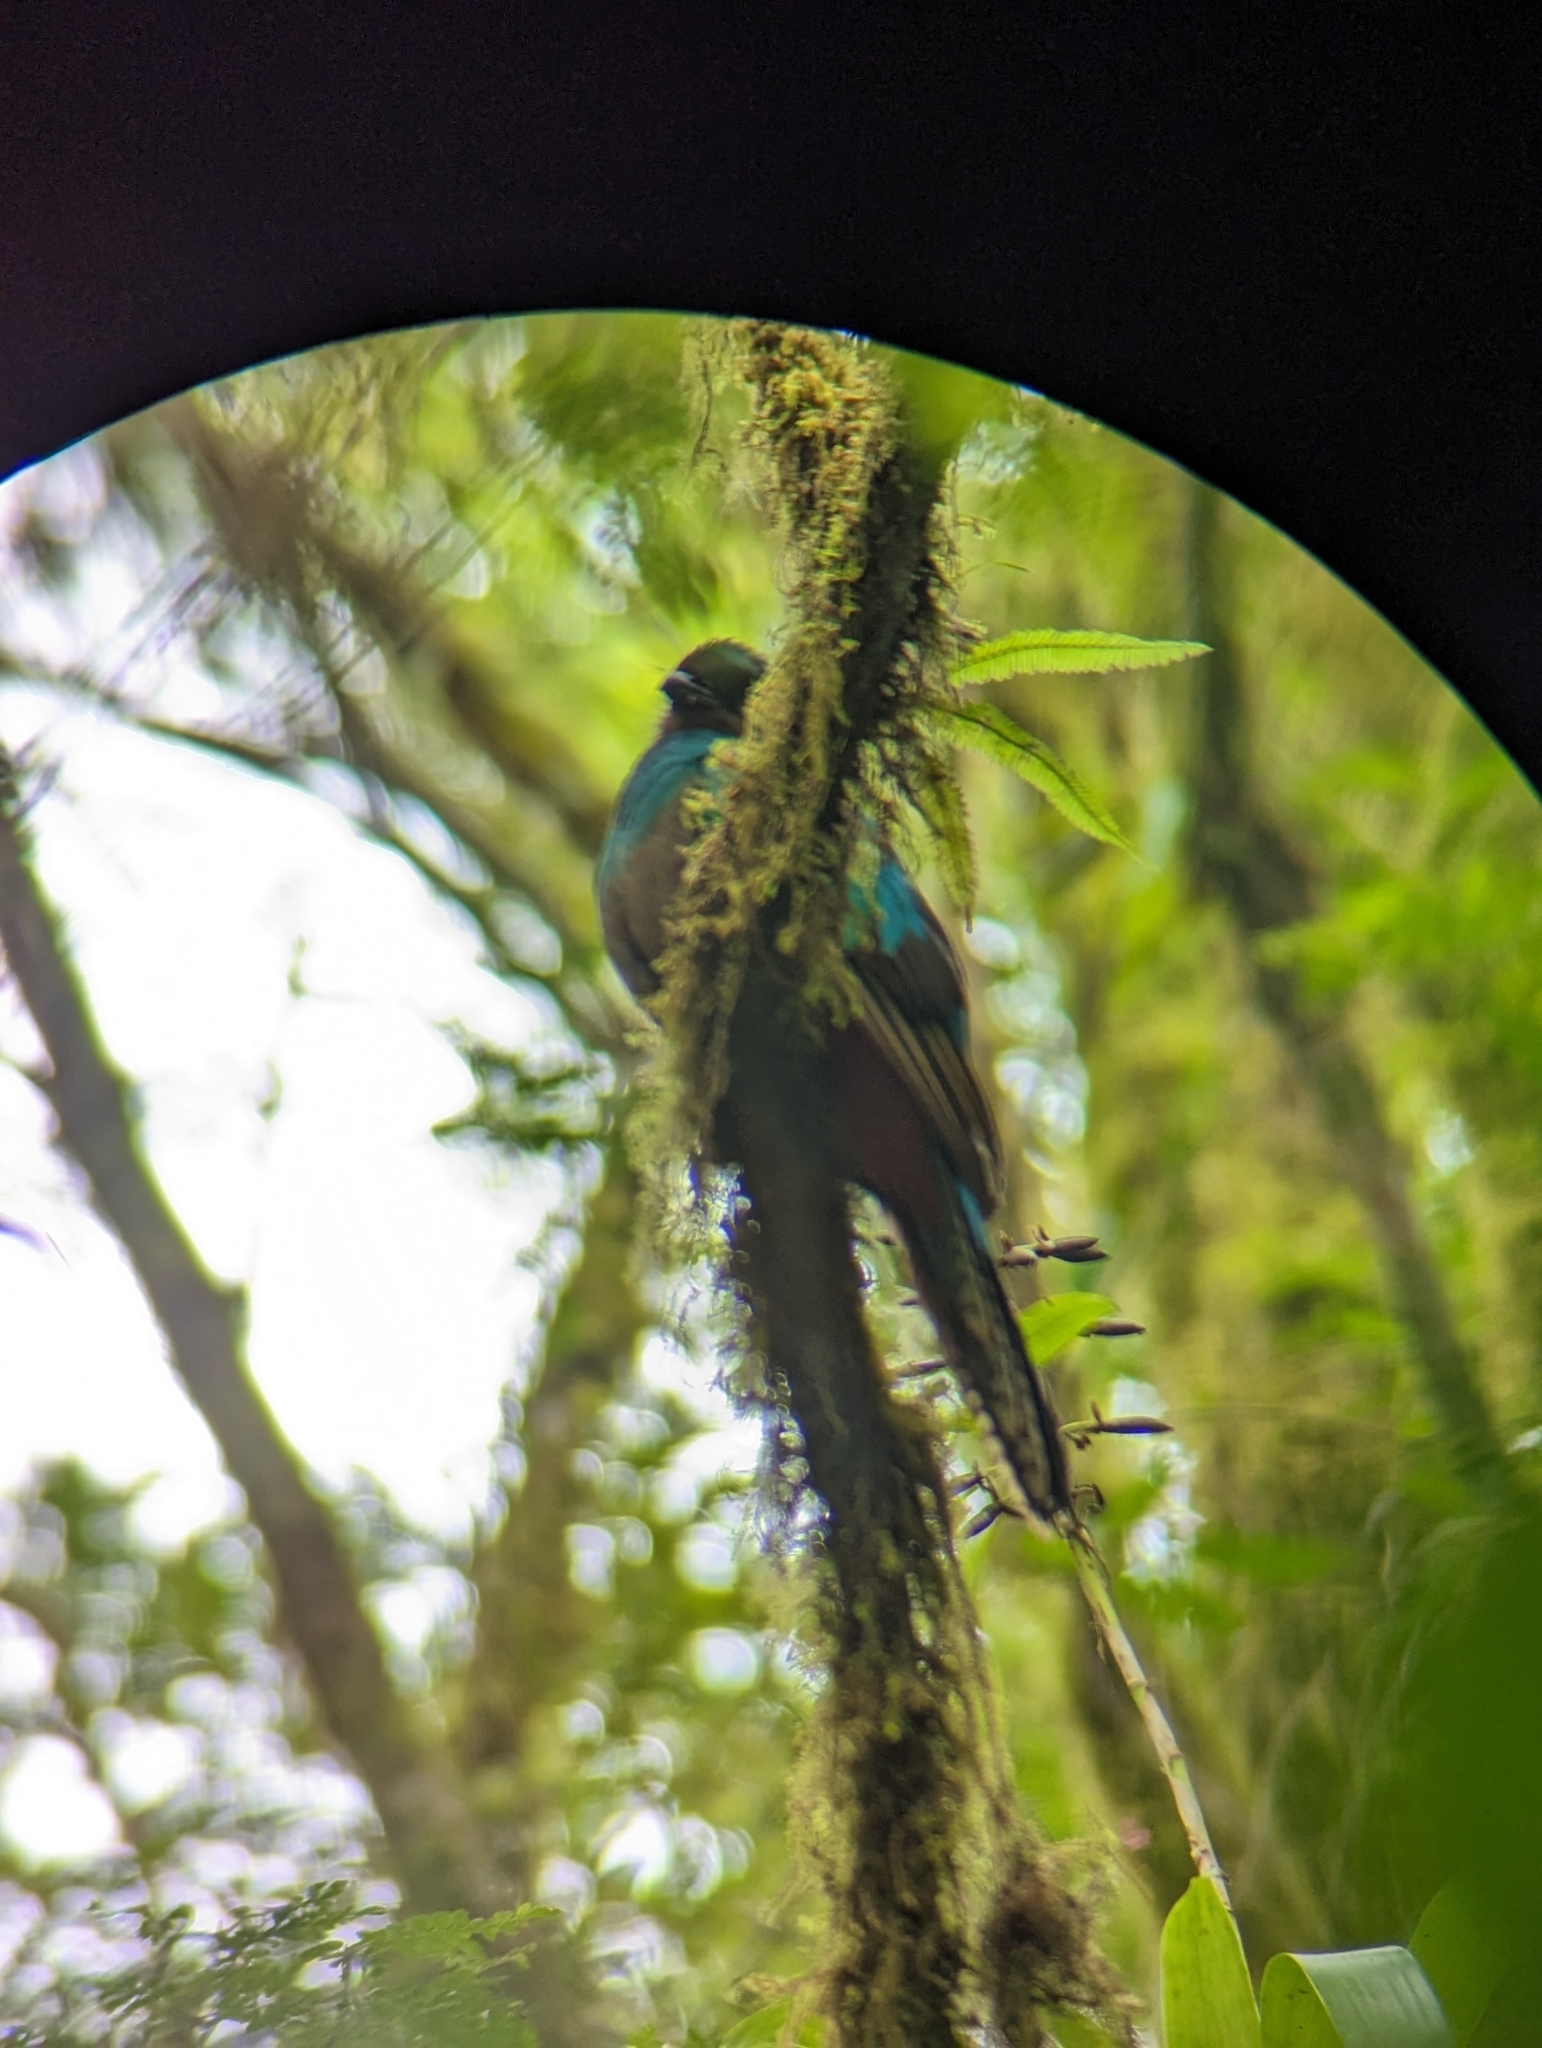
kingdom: Animalia
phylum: Chordata
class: Aves
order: Trogoniformes
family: Trogonidae
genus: Pharomachrus
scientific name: Pharomachrus mocinno
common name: Resplendent quetzal
